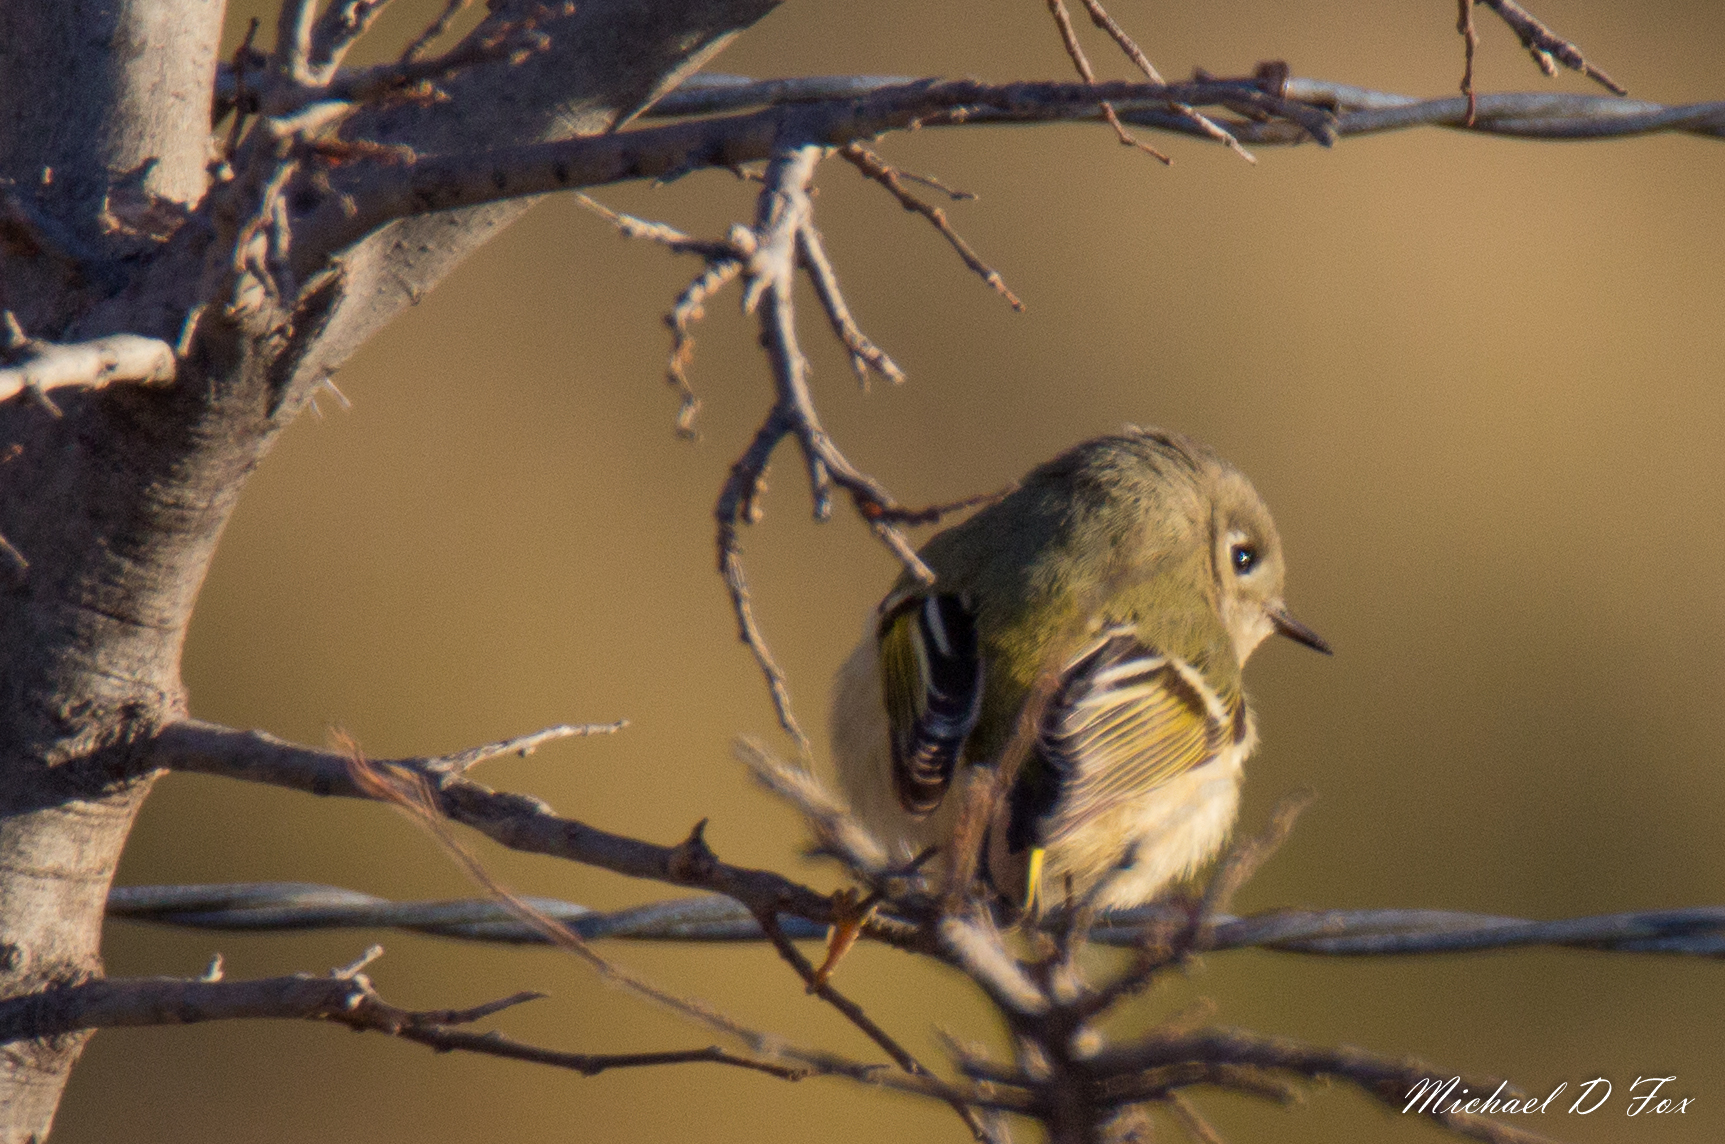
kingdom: Animalia
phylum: Chordata
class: Aves
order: Passeriformes
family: Regulidae
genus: Regulus
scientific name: Regulus calendula
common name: Ruby-crowned kinglet
